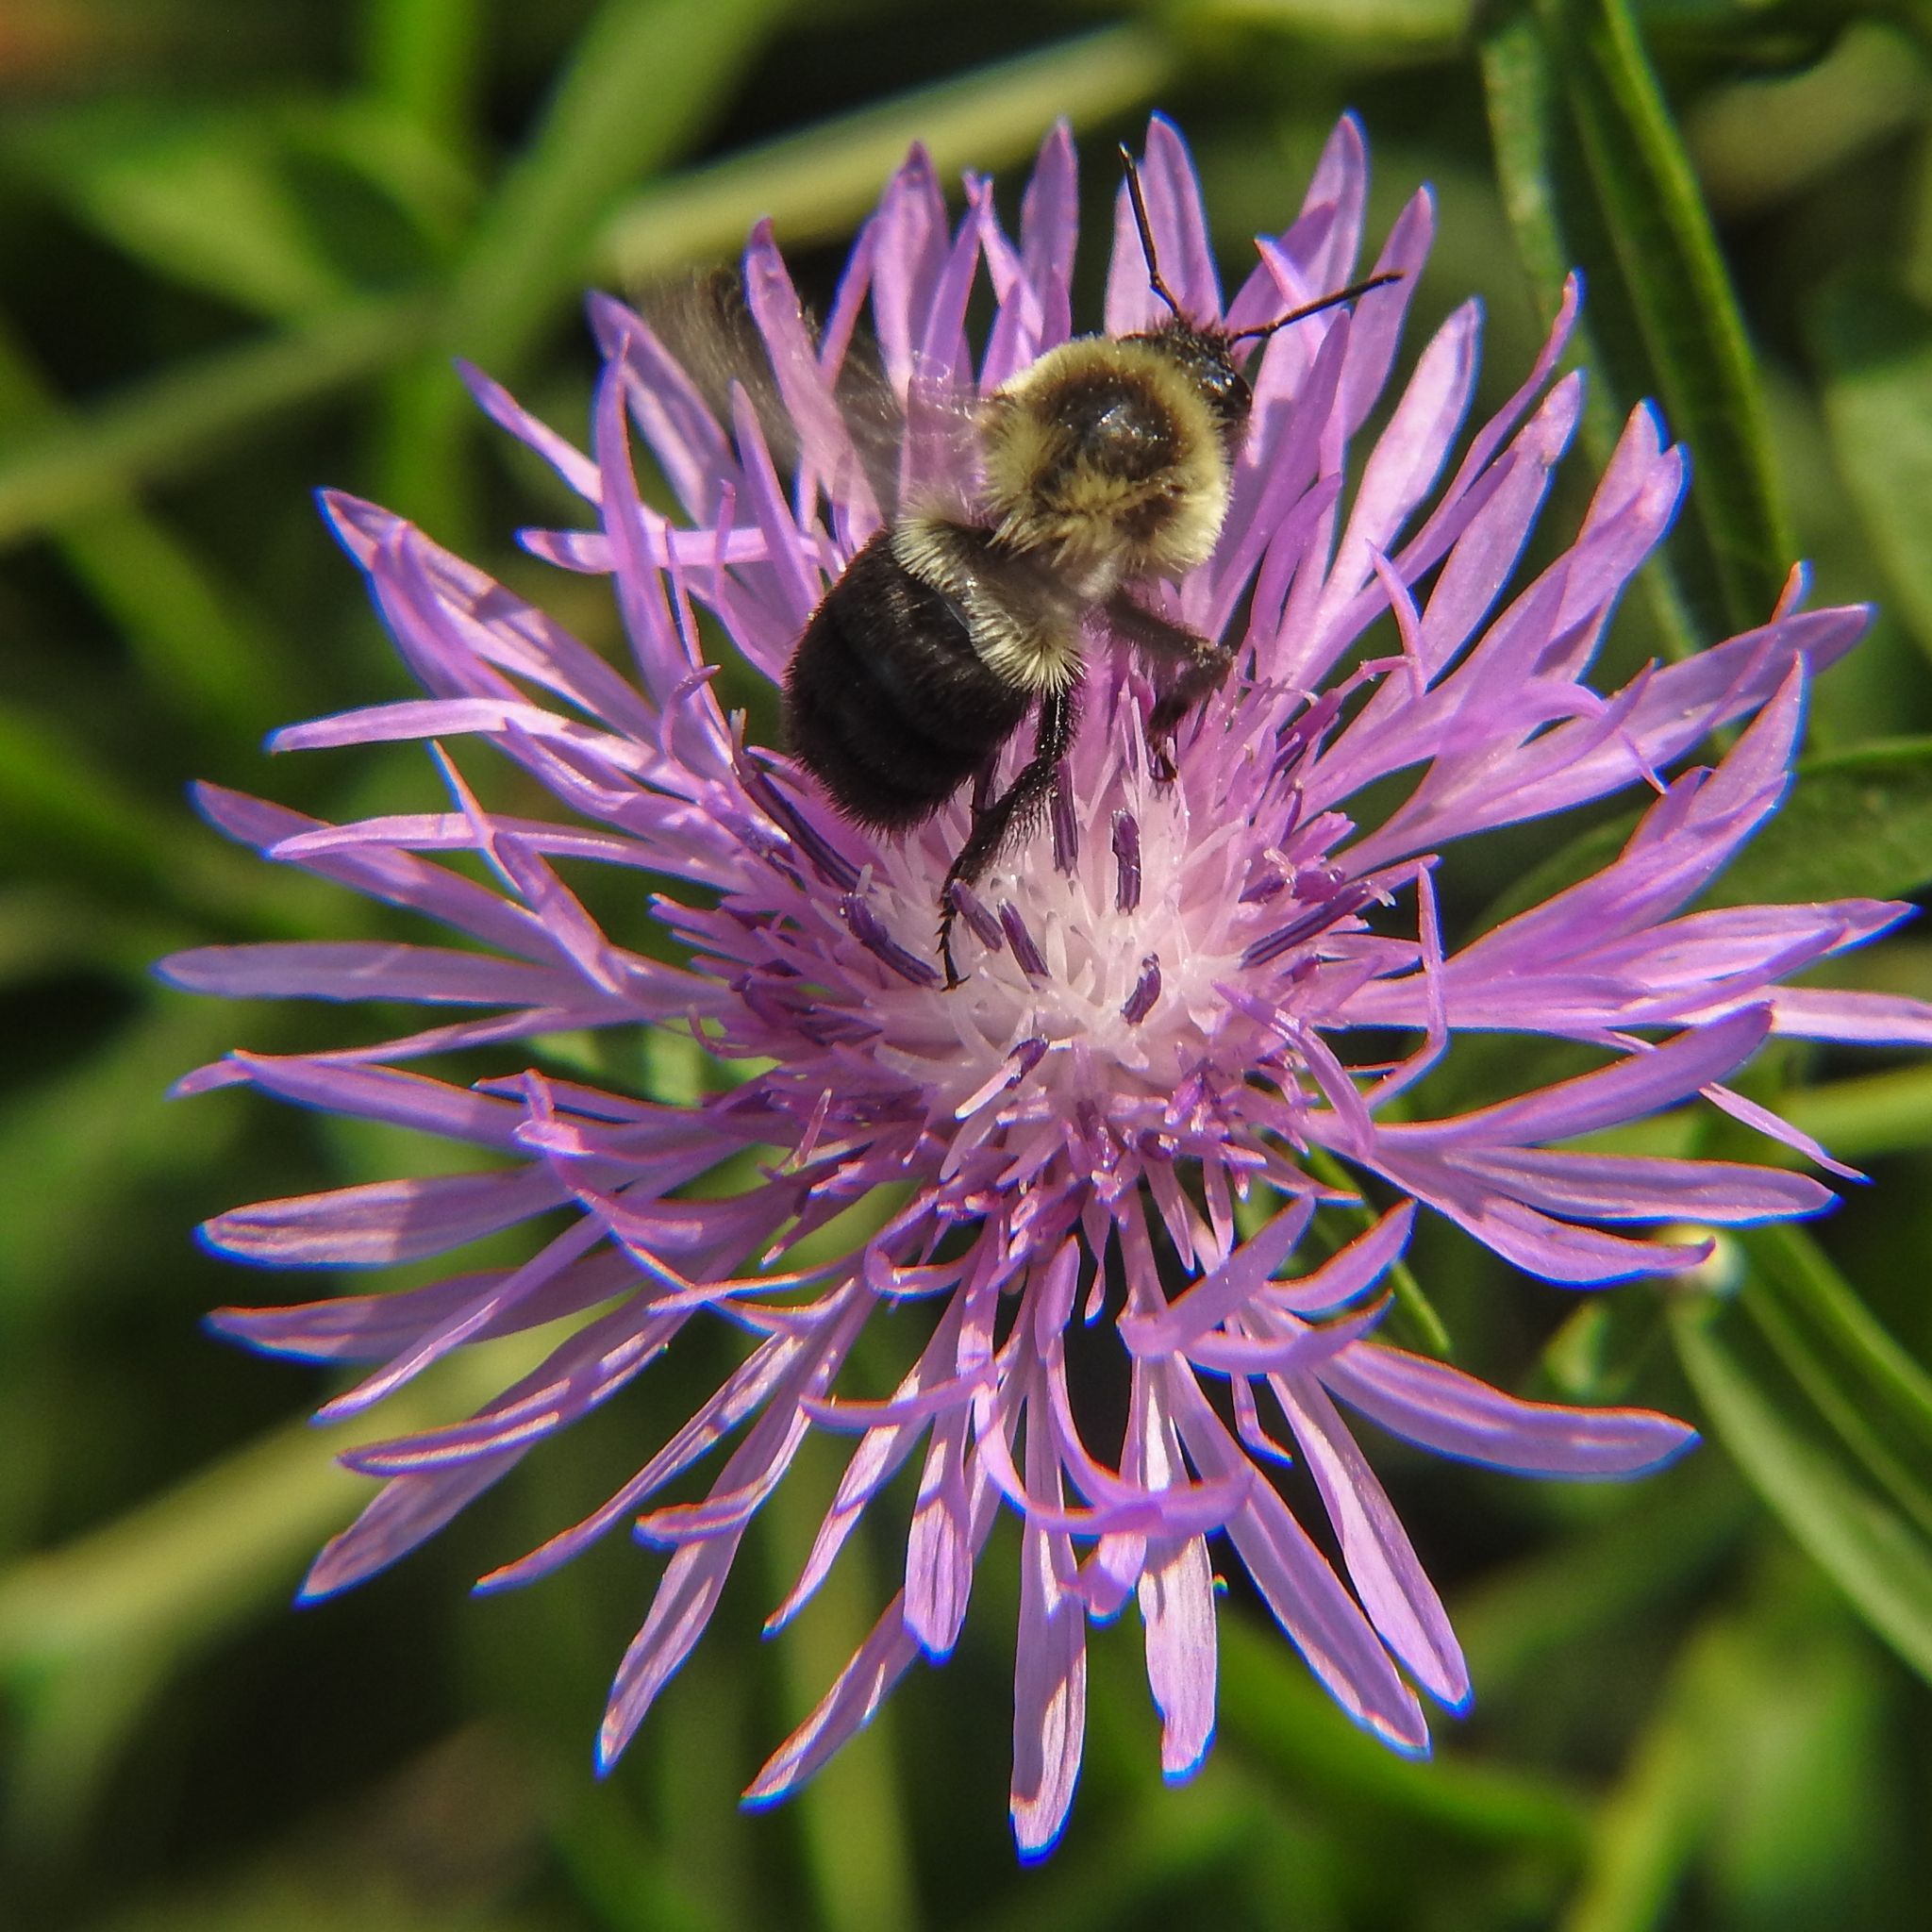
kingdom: Animalia
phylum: Arthropoda
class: Insecta
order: Hymenoptera
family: Apidae
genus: Bombus
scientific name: Bombus impatiens
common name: Common eastern bumble bee
